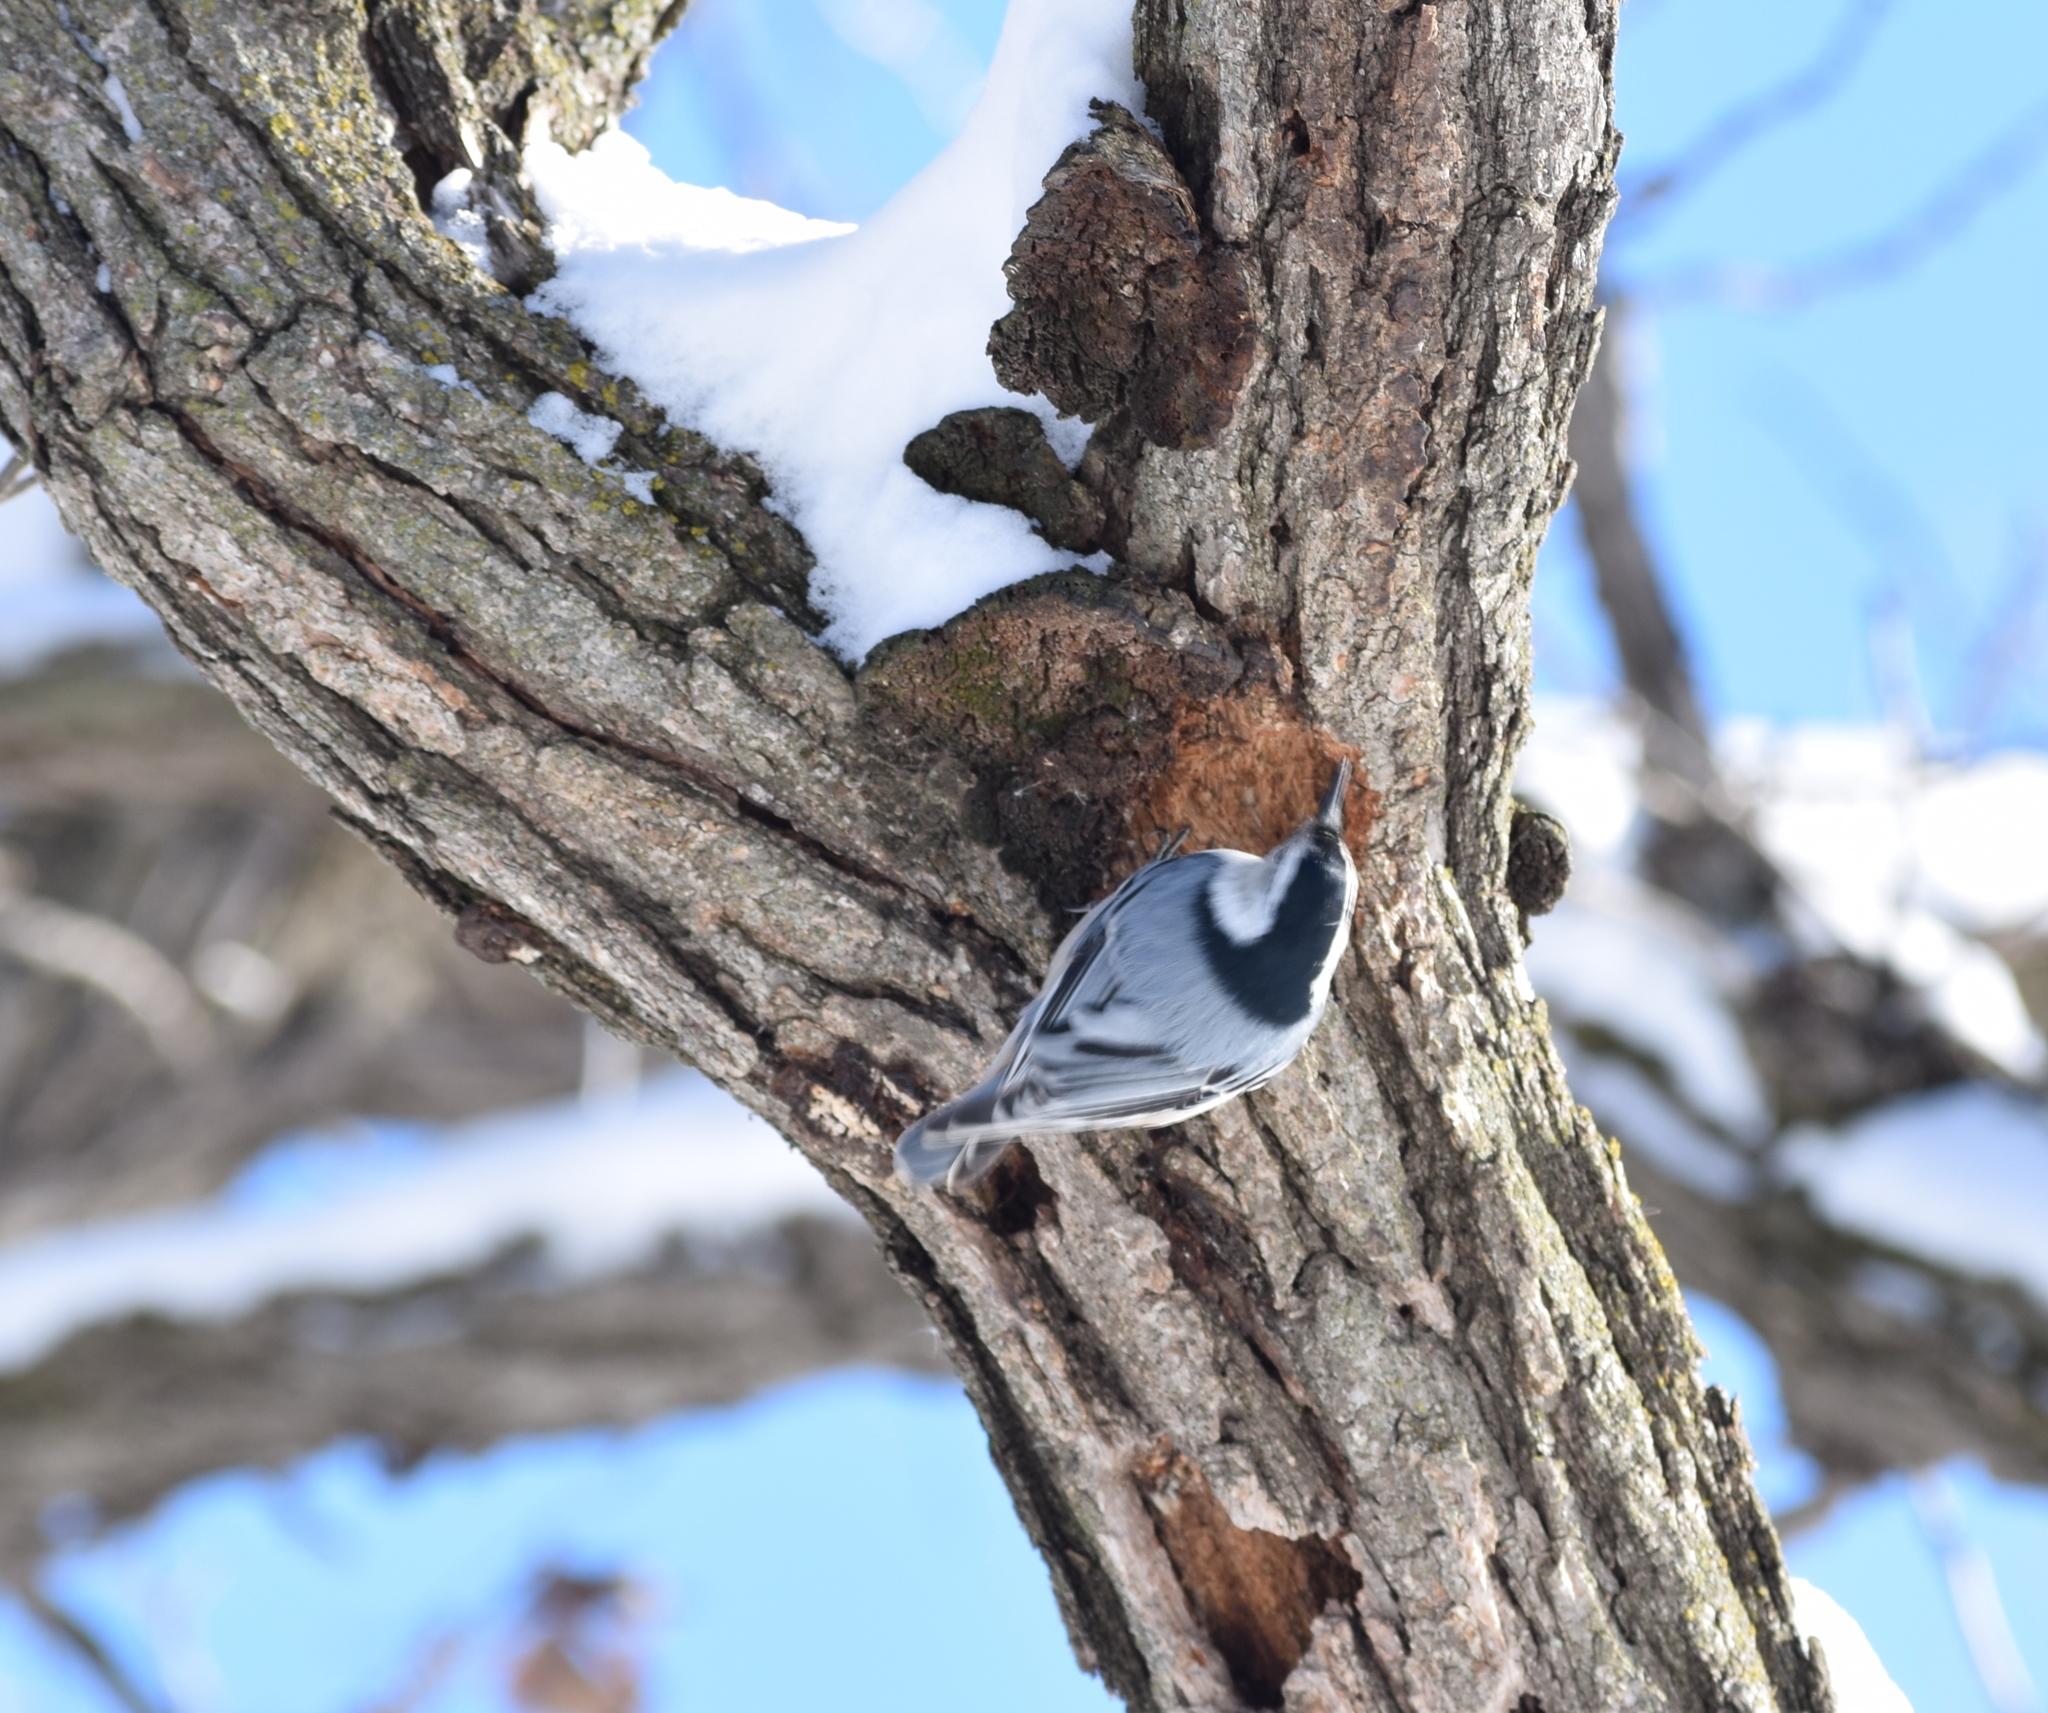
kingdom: Animalia
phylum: Chordata
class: Aves
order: Passeriformes
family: Sittidae
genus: Sitta
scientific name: Sitta carolinensis
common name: White-breasted nuthatch
